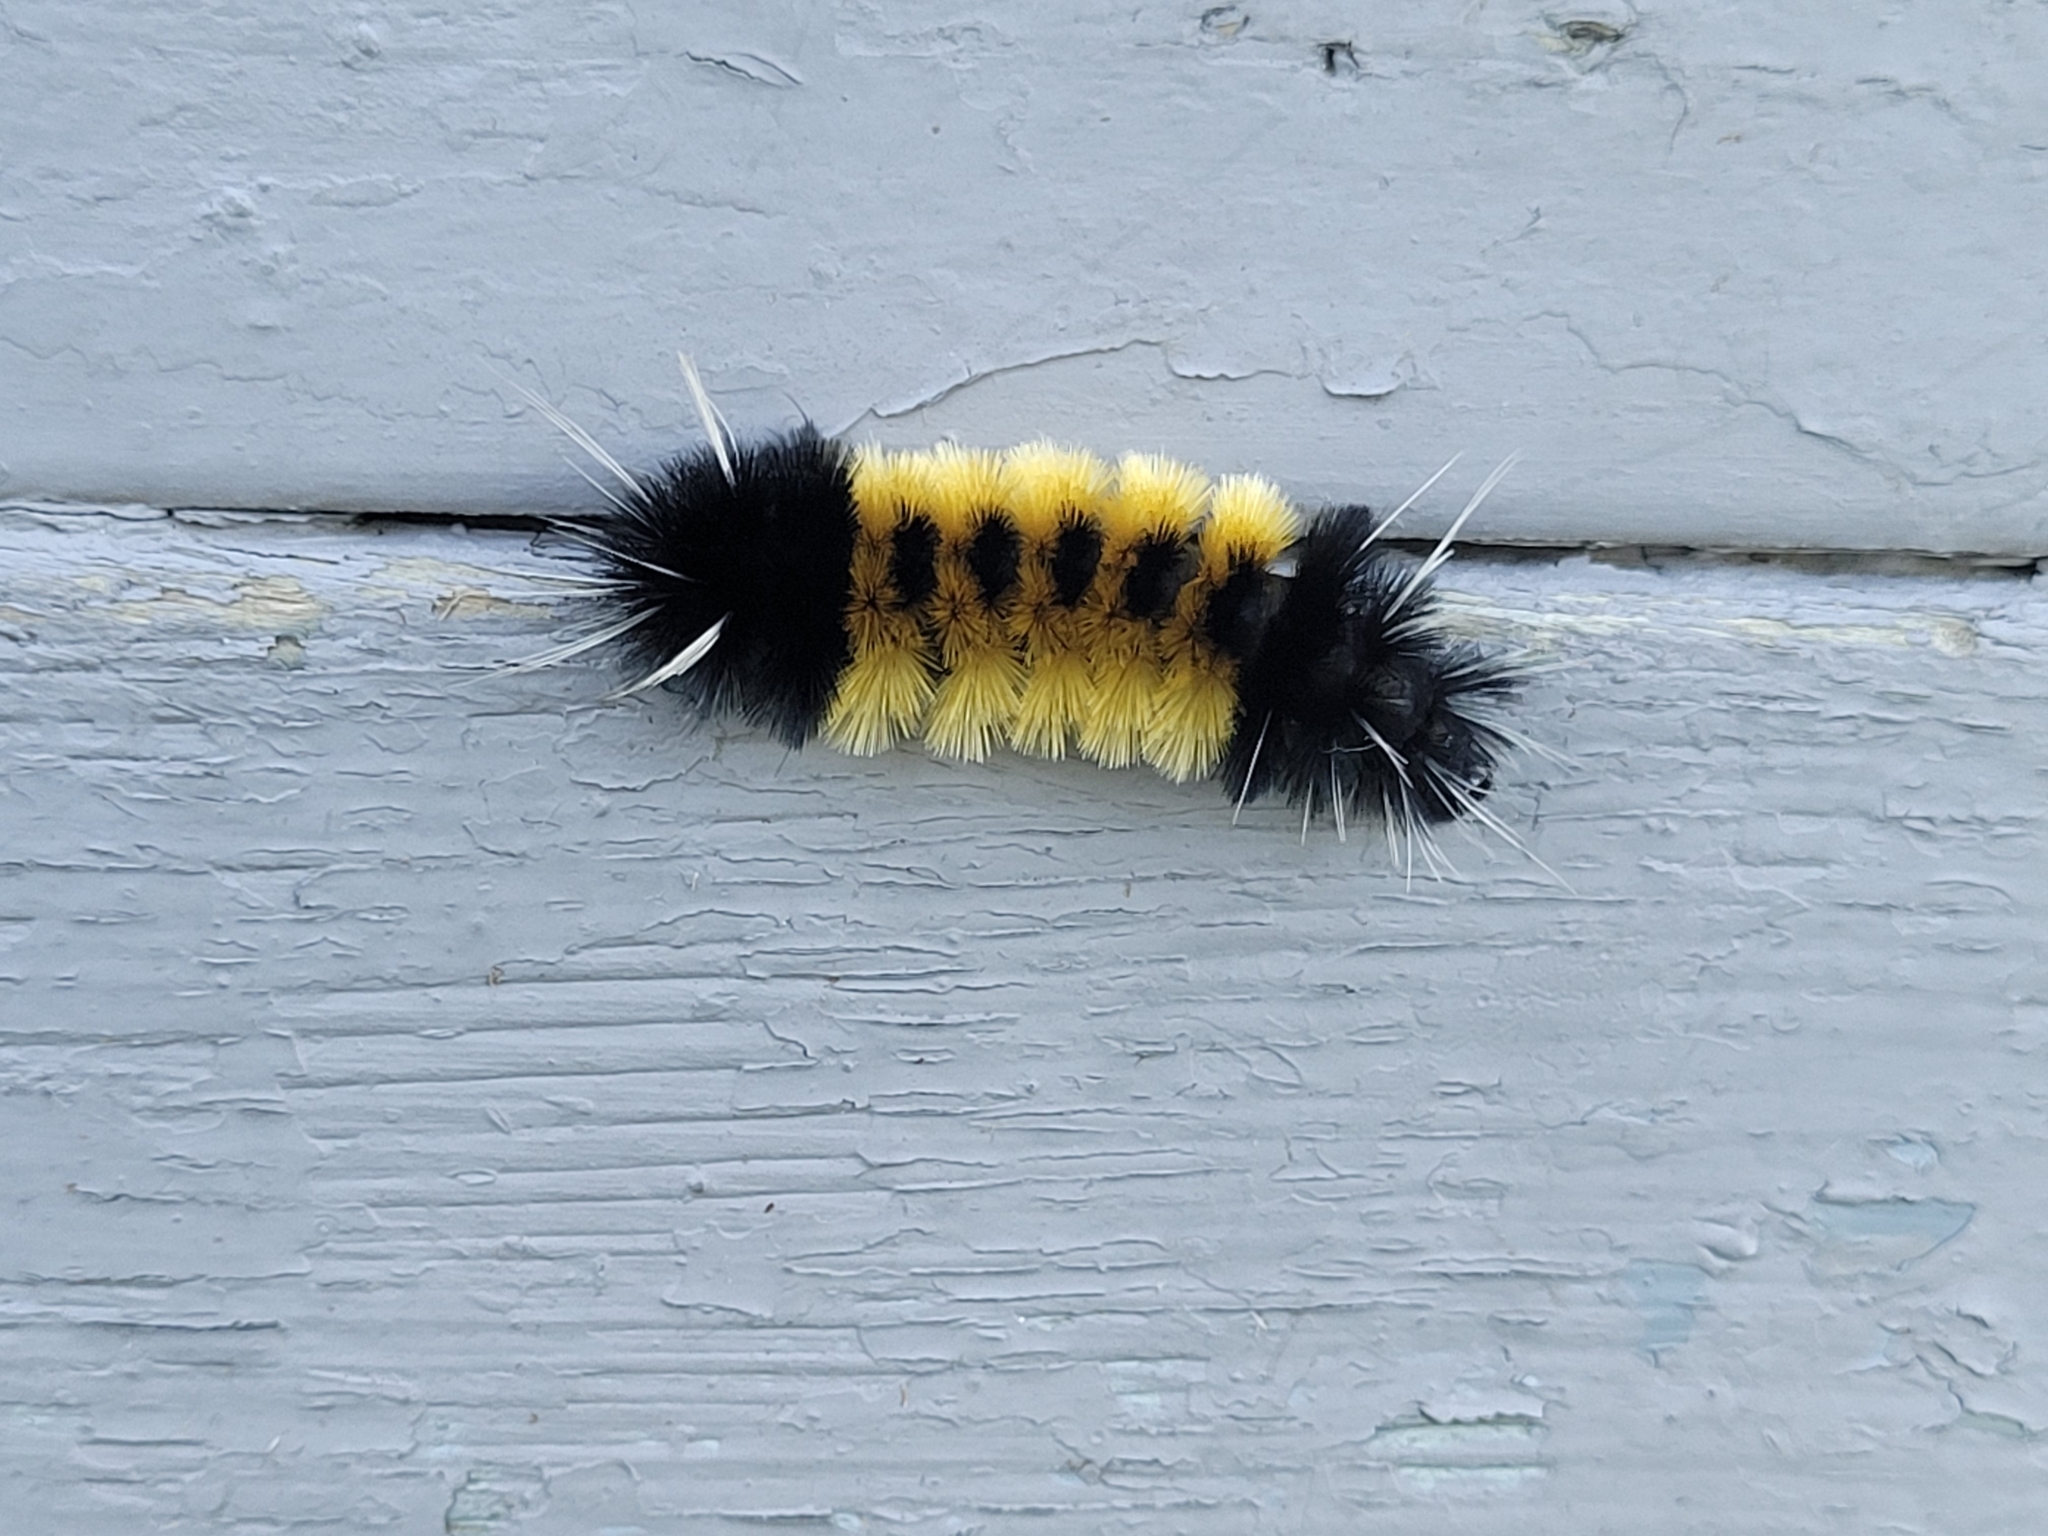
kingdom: Animalia
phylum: Arthropoda
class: Insecta
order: Lepidoptera
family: Erebidae
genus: Lophocampa
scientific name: Lophocampa maculata
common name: Spotted tussock moth
